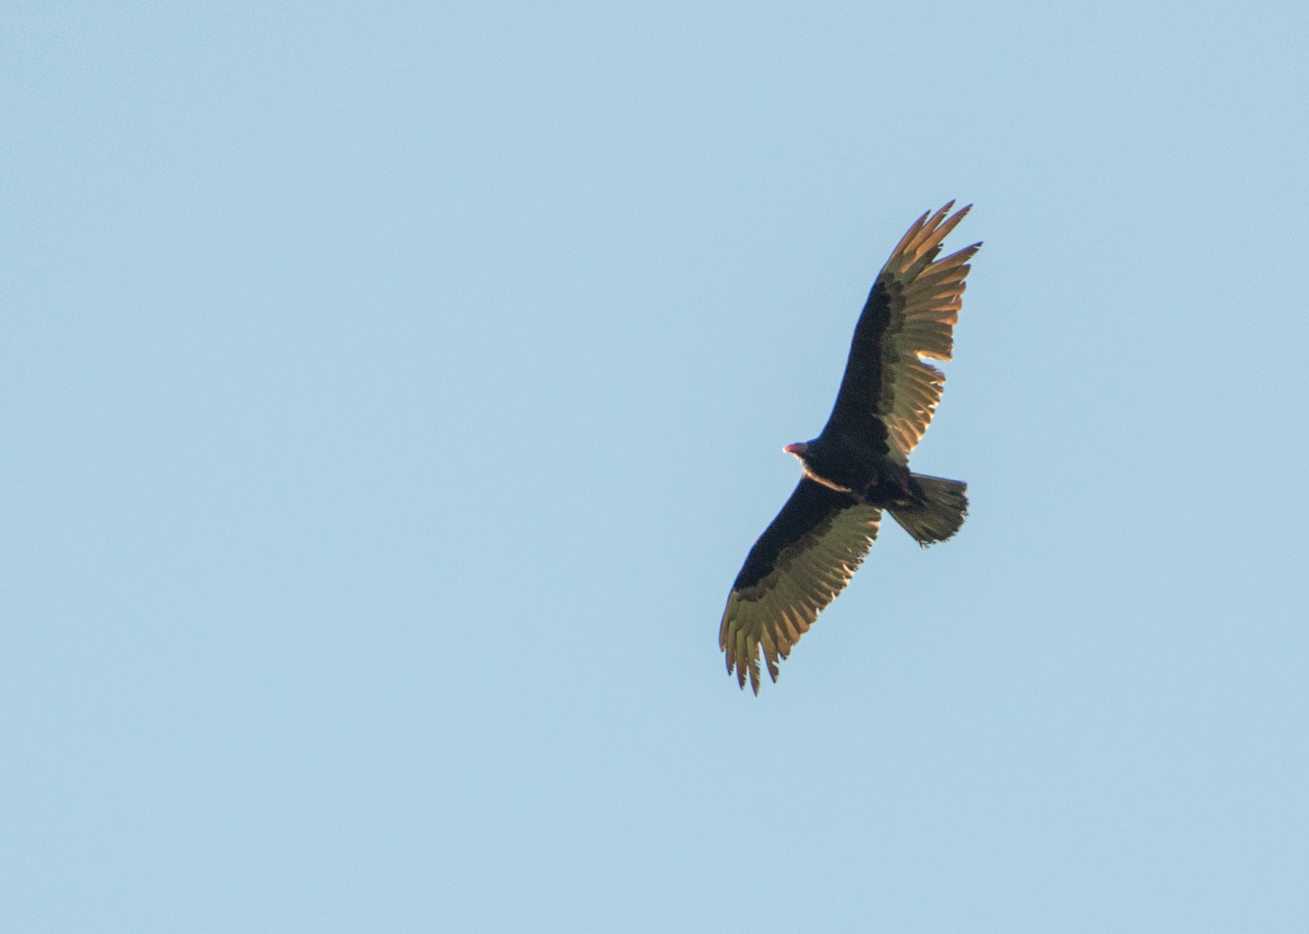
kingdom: Animalia
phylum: Chordata
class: Aves
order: Accipitriformes
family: Cathartidae
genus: Cathartes
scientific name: Cathartes aura
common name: Turkey vulture
